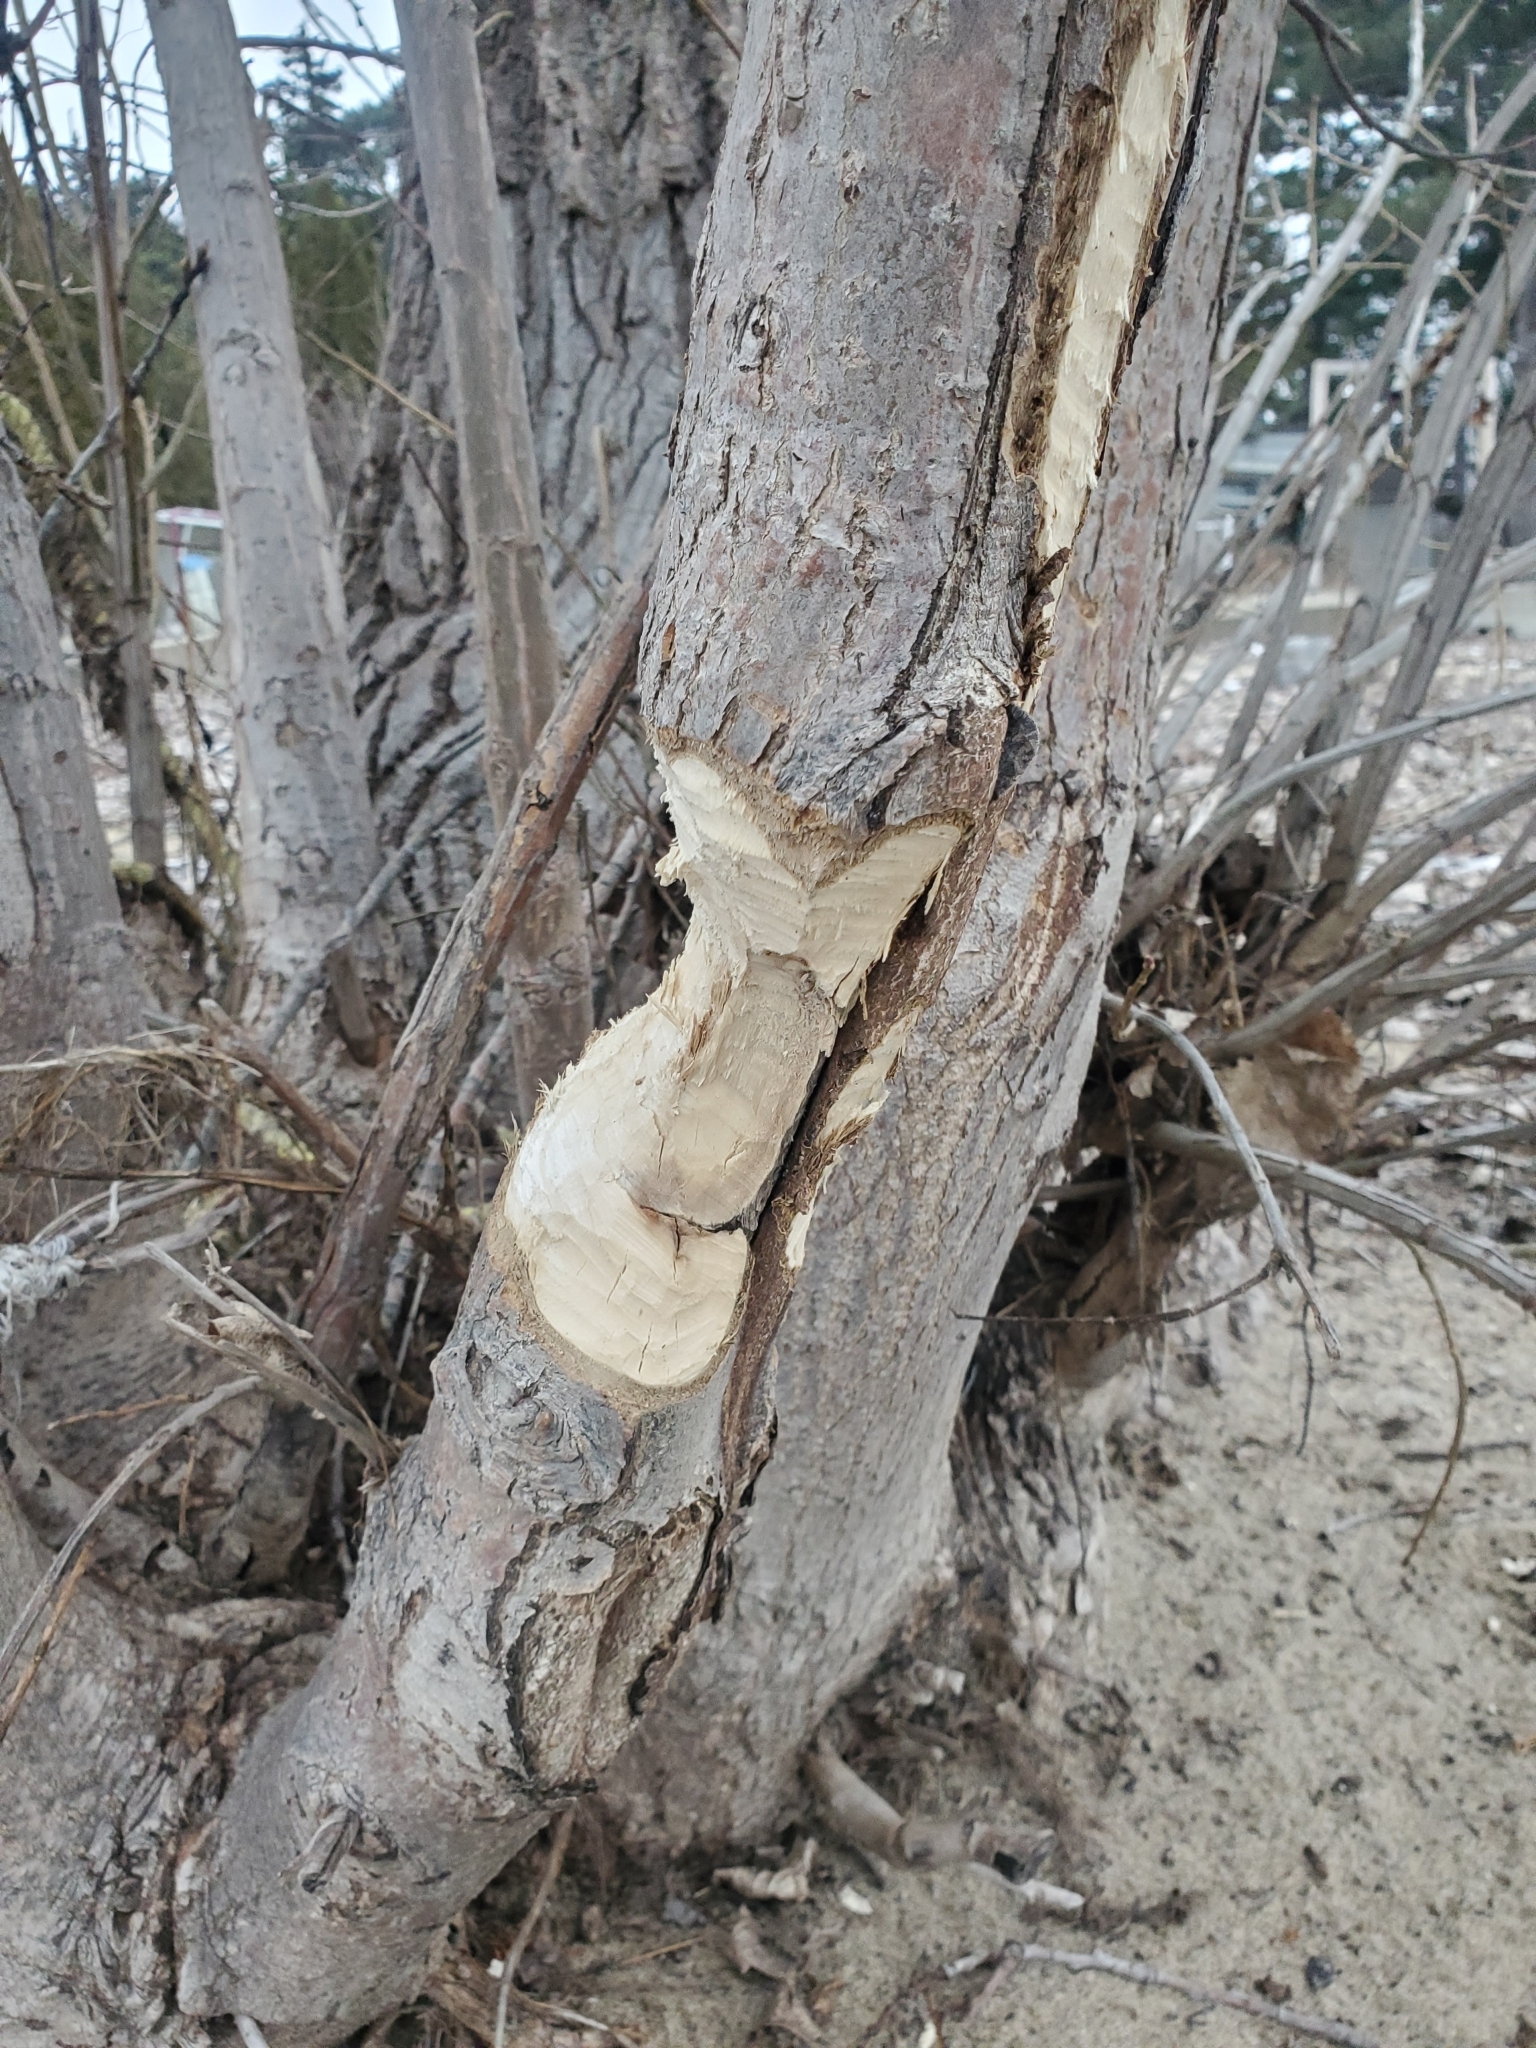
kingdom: Animalia
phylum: Chordata
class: Mammalia
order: Rodentia
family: Castoridae
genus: Castor
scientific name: Castor canadensis
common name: American beaver
